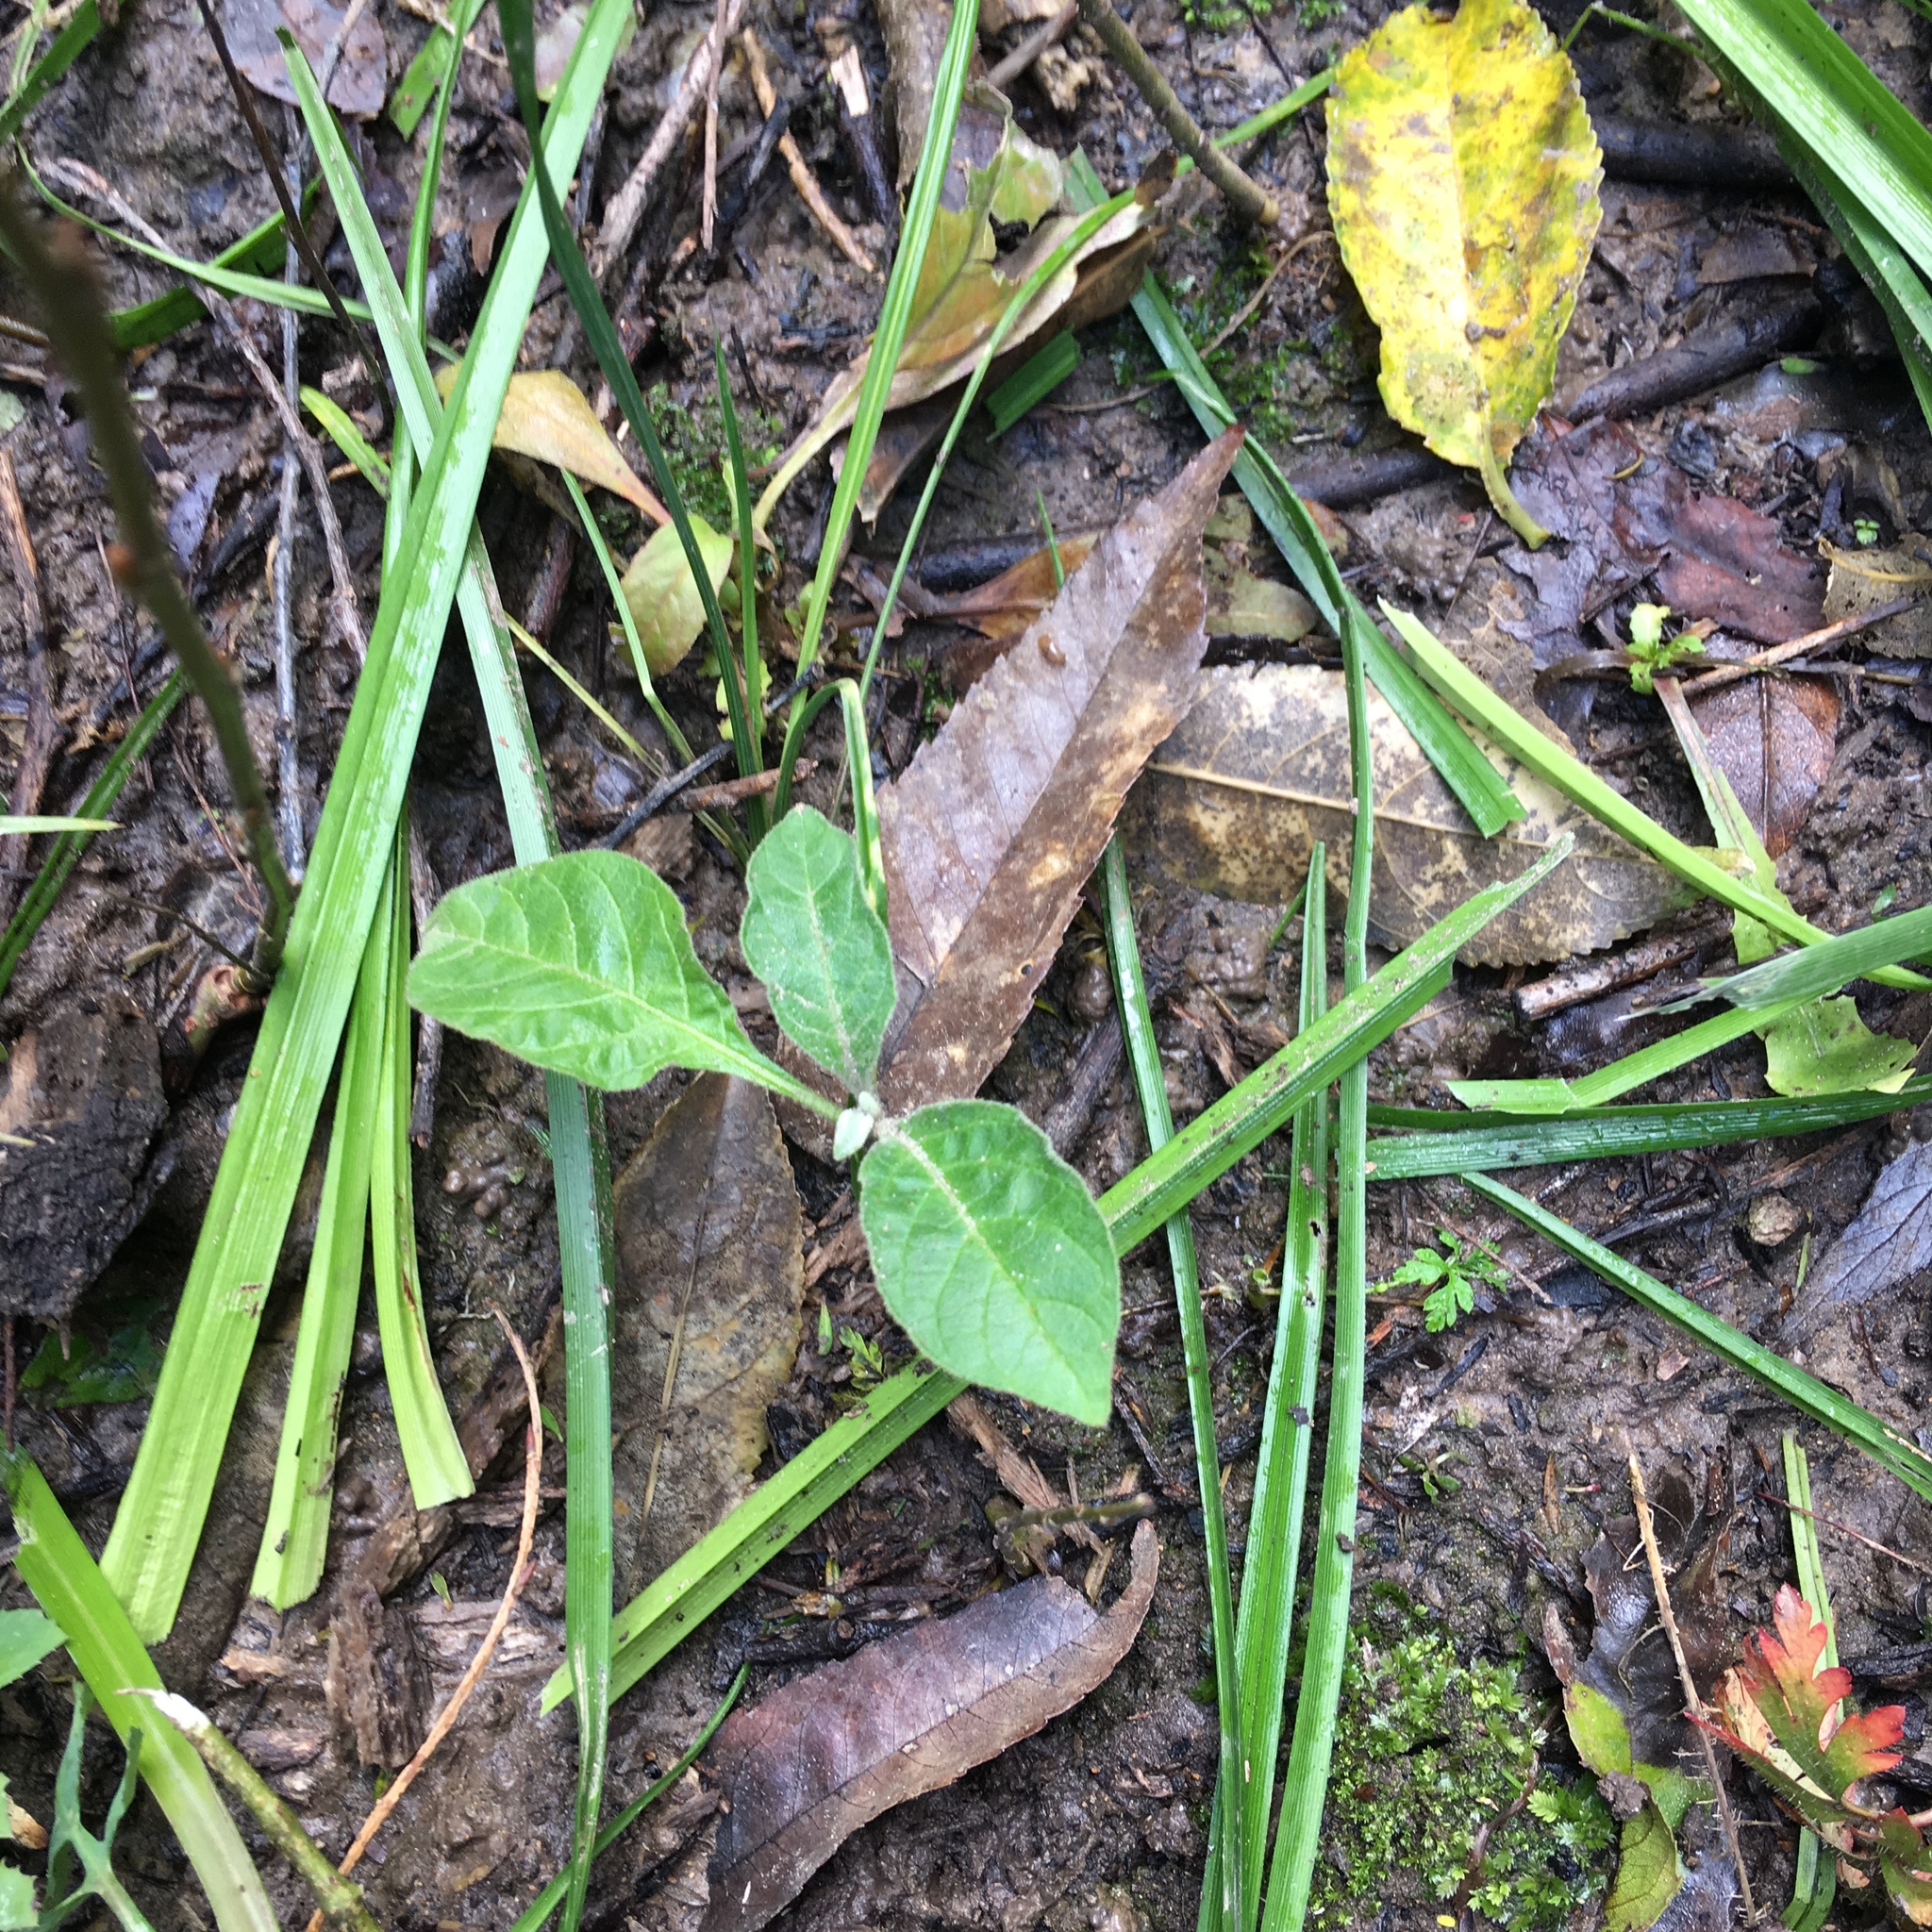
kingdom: Plantae
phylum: Tracheophyta
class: Magnoliopsida
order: Solanales
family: Solanaceae
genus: Solanum
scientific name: Solanum mauritianum
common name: Earleaf nightshade
